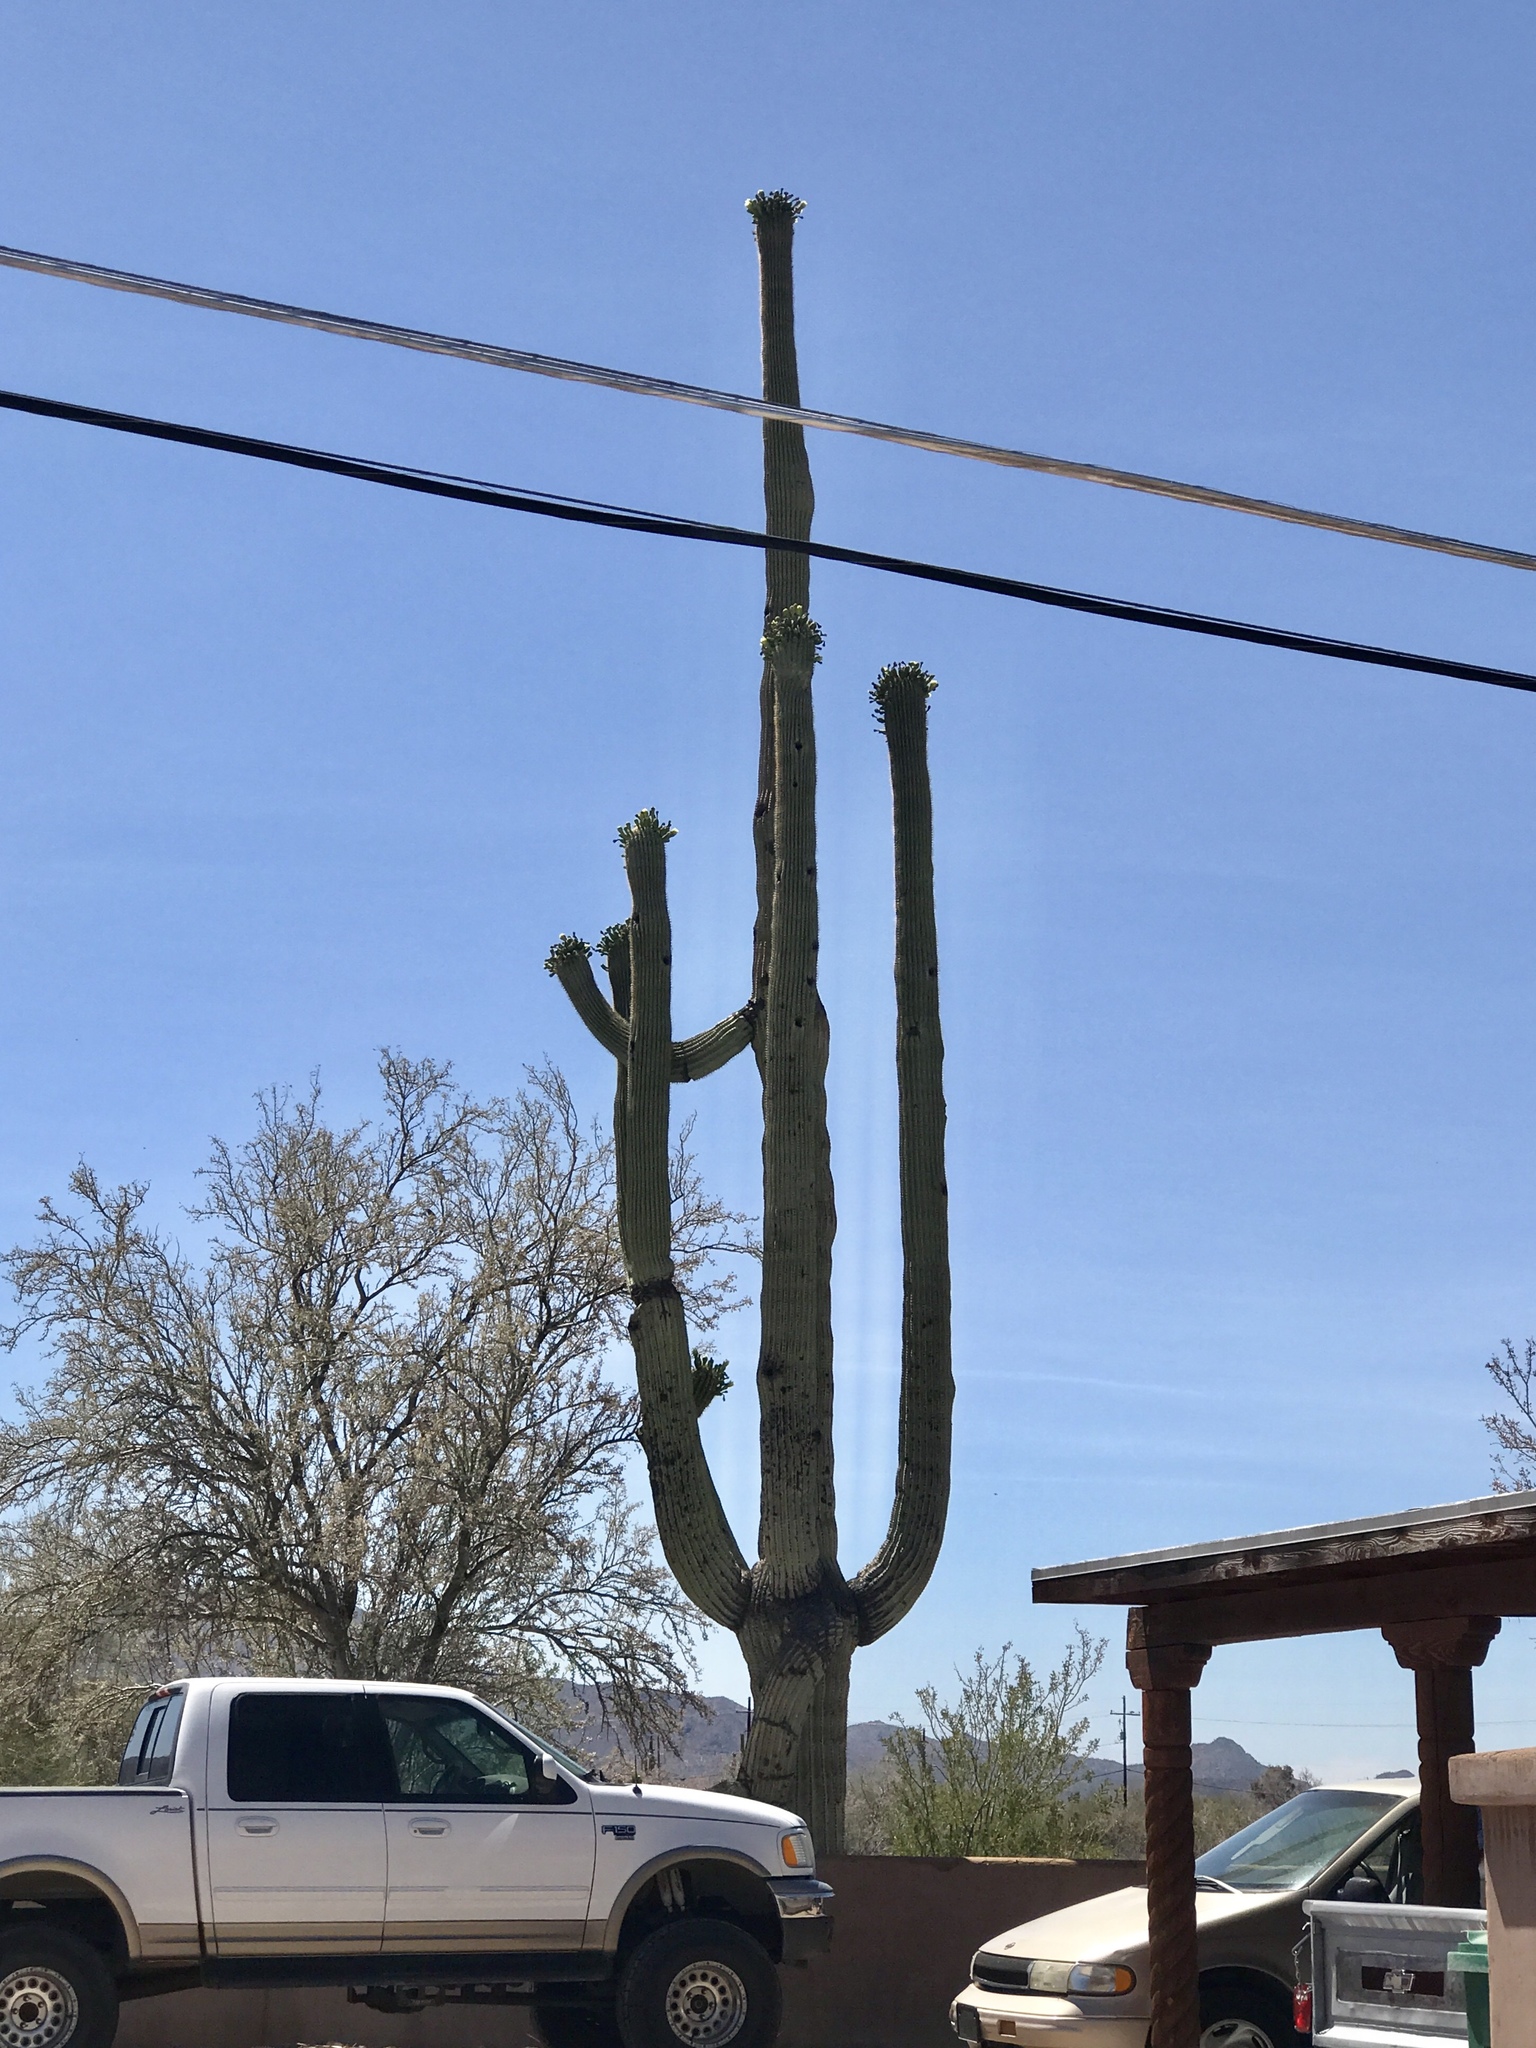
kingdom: Plantae
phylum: Tracheophyta
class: Magnoliopsida
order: Caryophyllales
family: Cactaceae
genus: Carnegiea
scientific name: Carnegiea gigantea
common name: Saguaro
